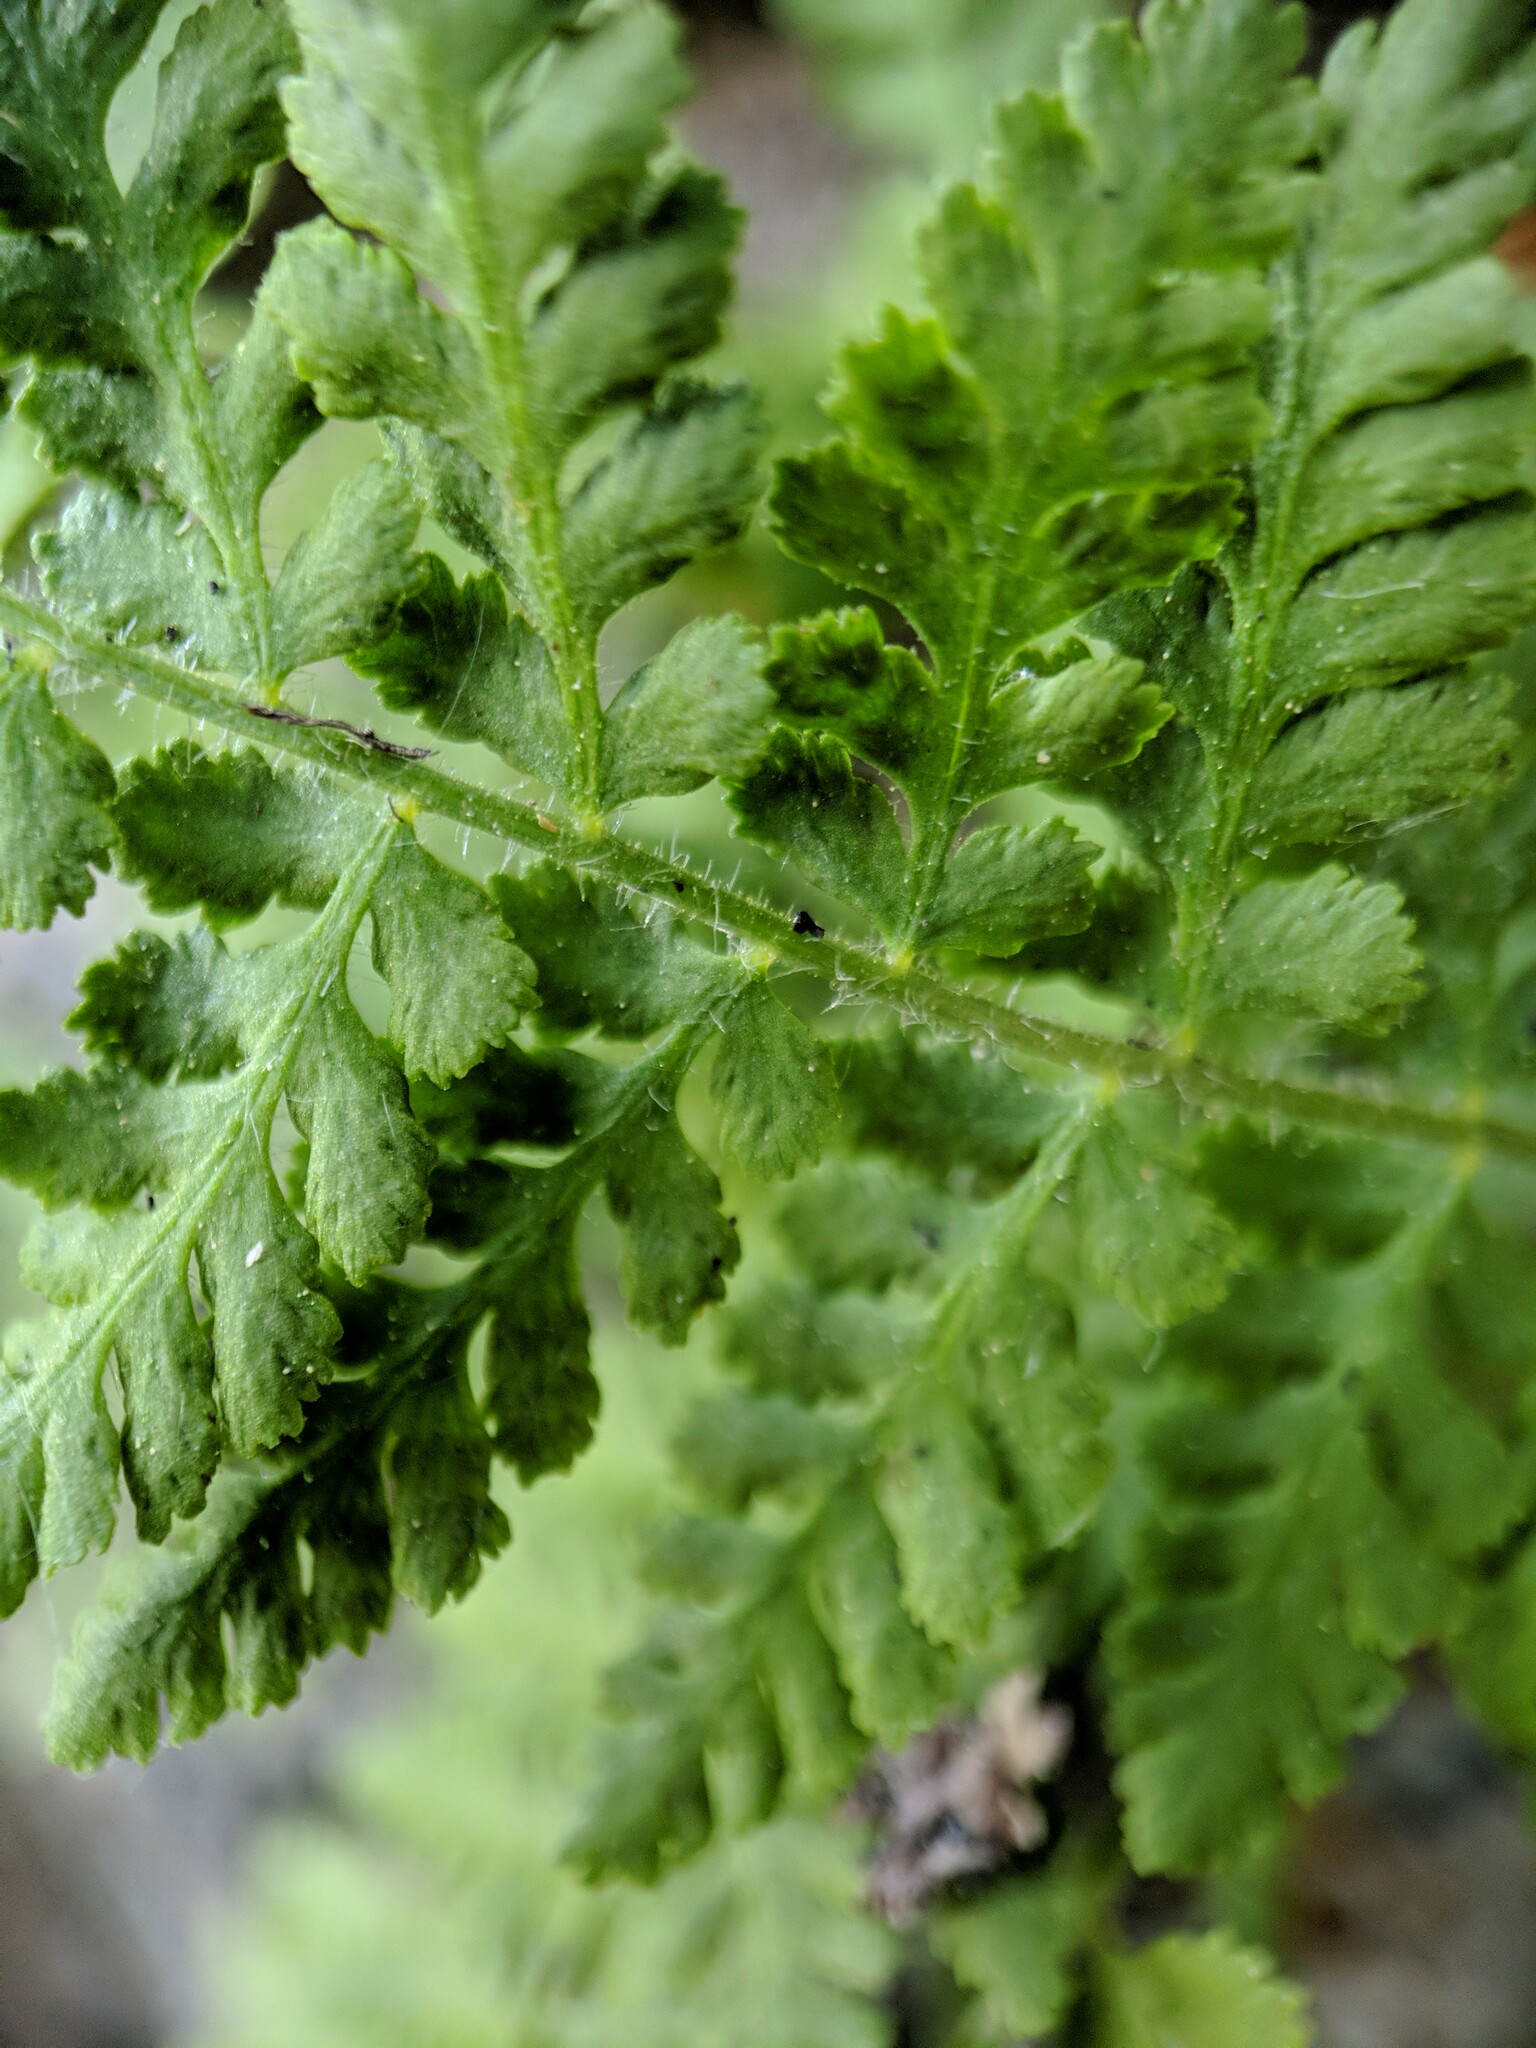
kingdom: Plantae
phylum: Tracheophyta
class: Polypodiopsida
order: Polypodiales
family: Woodsiaceae
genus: Physematium
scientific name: Physematium scopulinum
